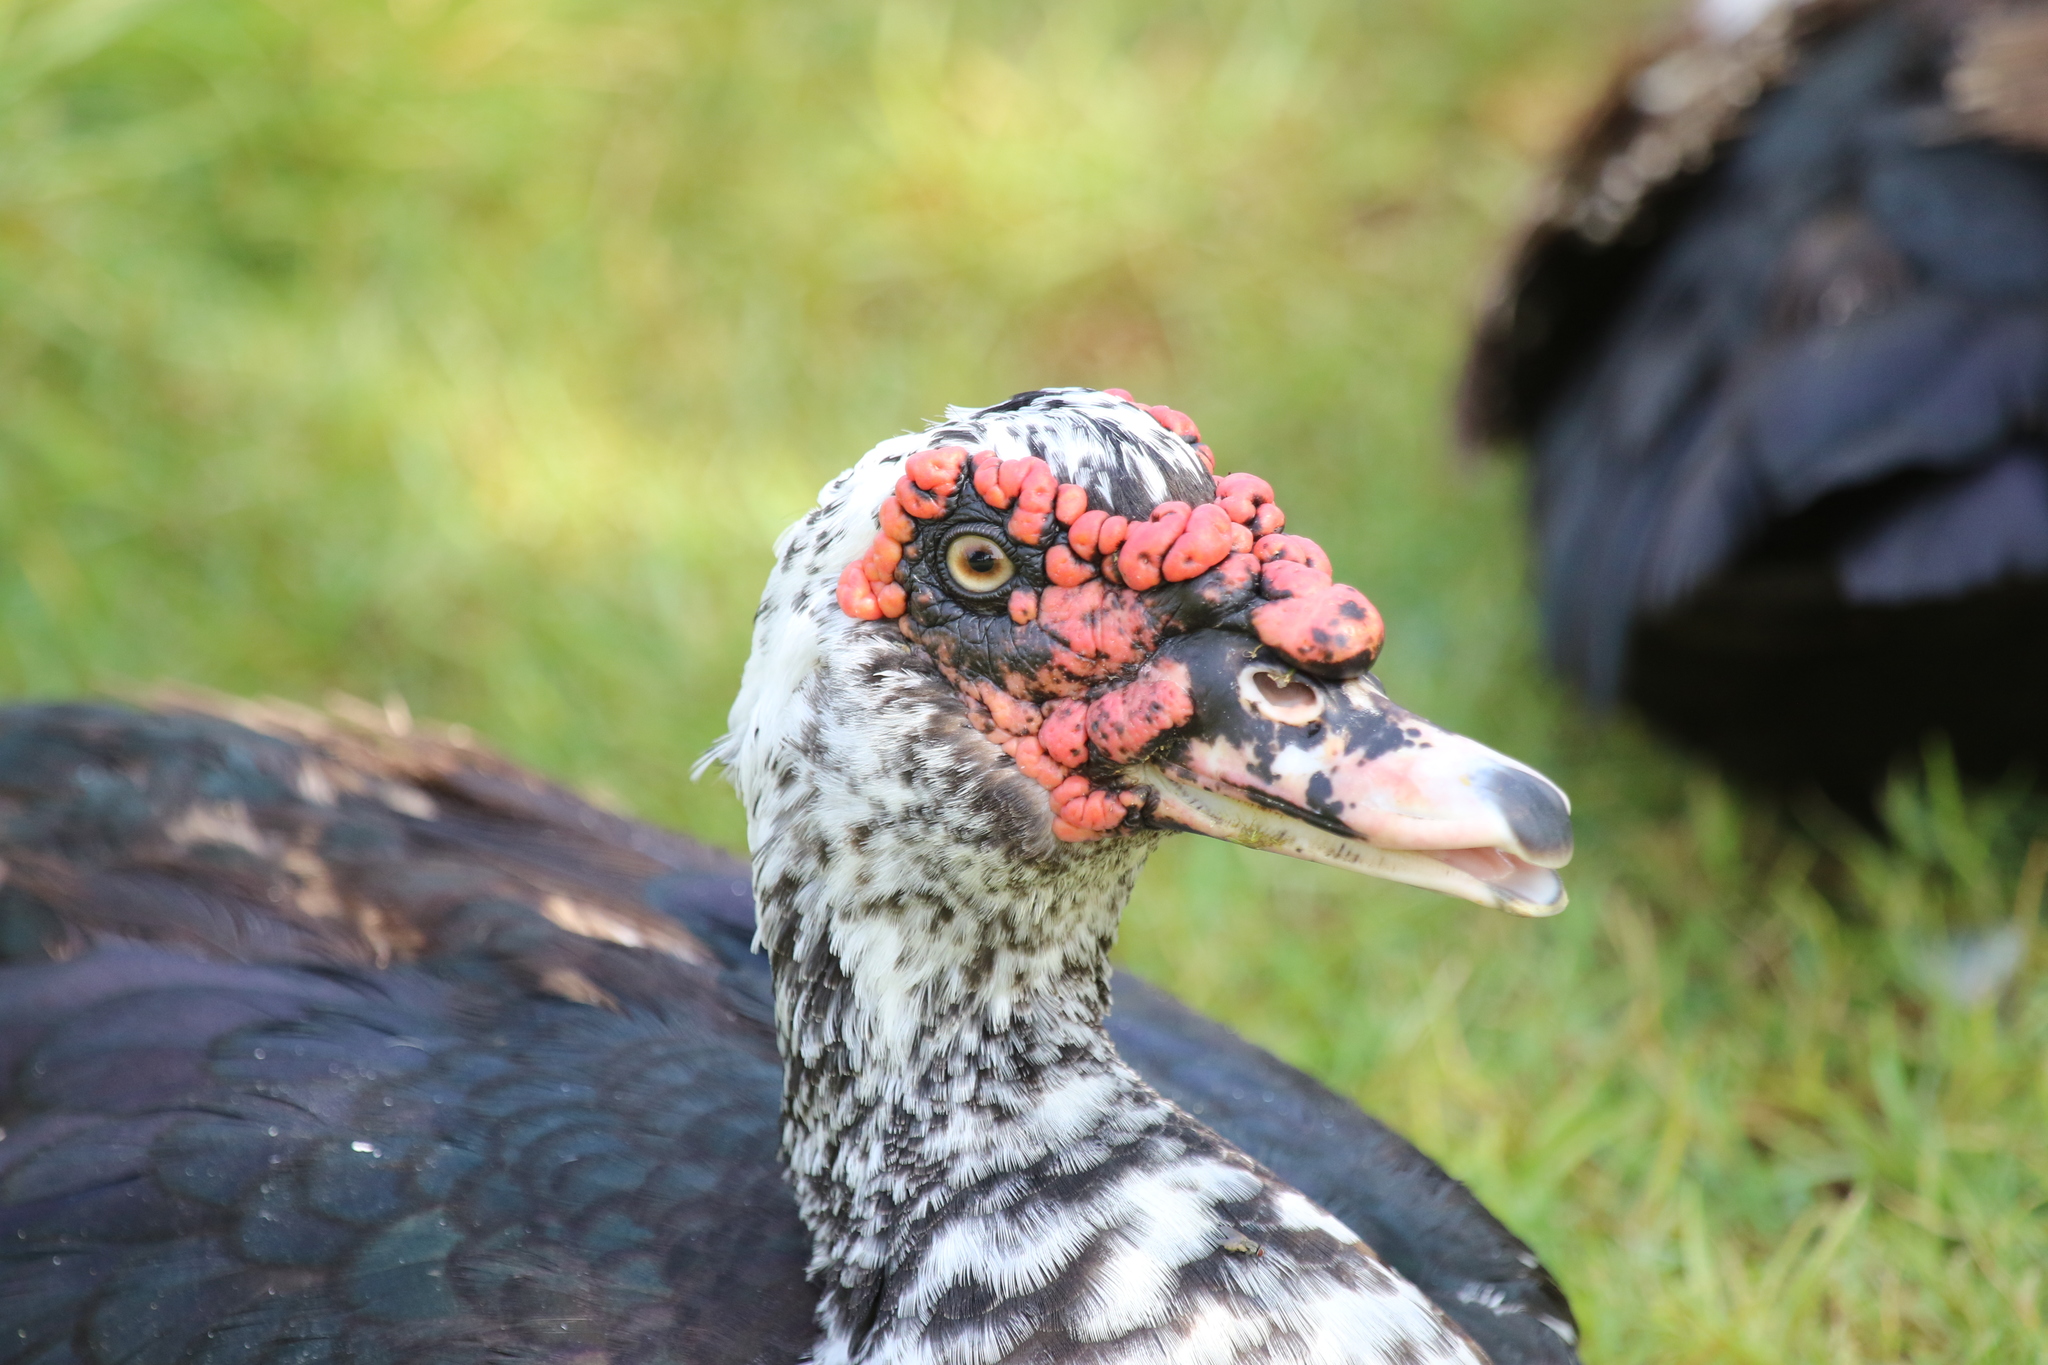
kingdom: Animalia
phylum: Chordata
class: Aves
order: Anseriformes
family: Anatidae
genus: Cairina
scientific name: Cairina moschata
